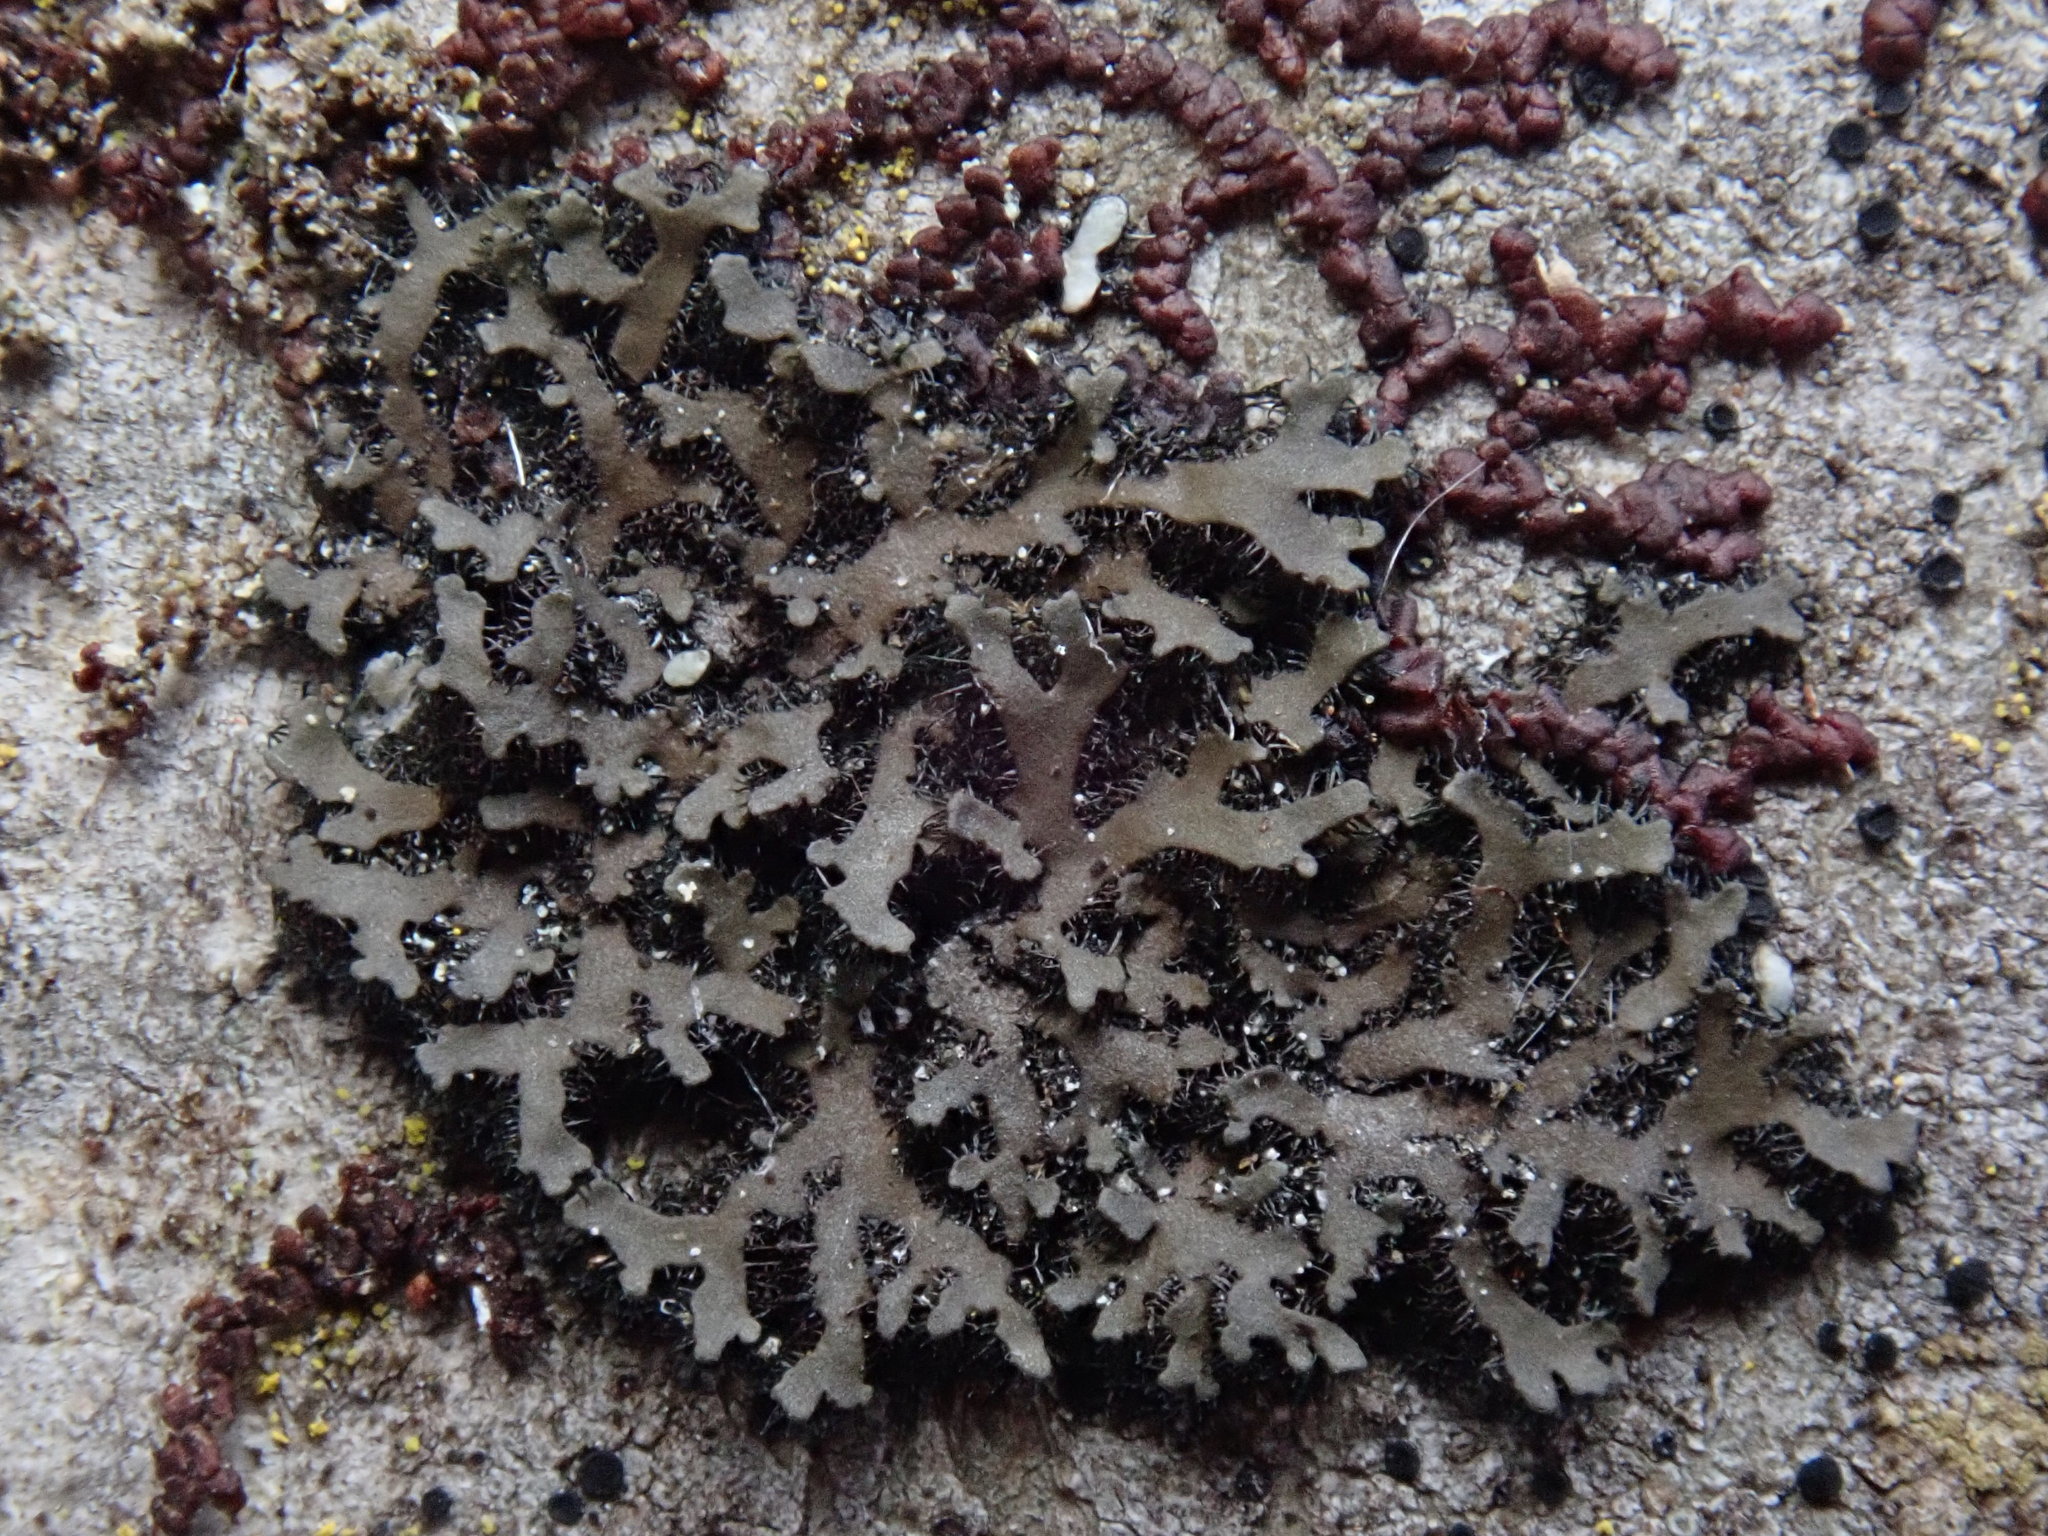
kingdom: Fungi
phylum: Ascomycota
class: Lecanoromycetes
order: Caliciales
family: Physciaceae
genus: Phaeophyscia
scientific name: Phaeophyscia rubropulchra
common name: Orange-cored shadow lichen
